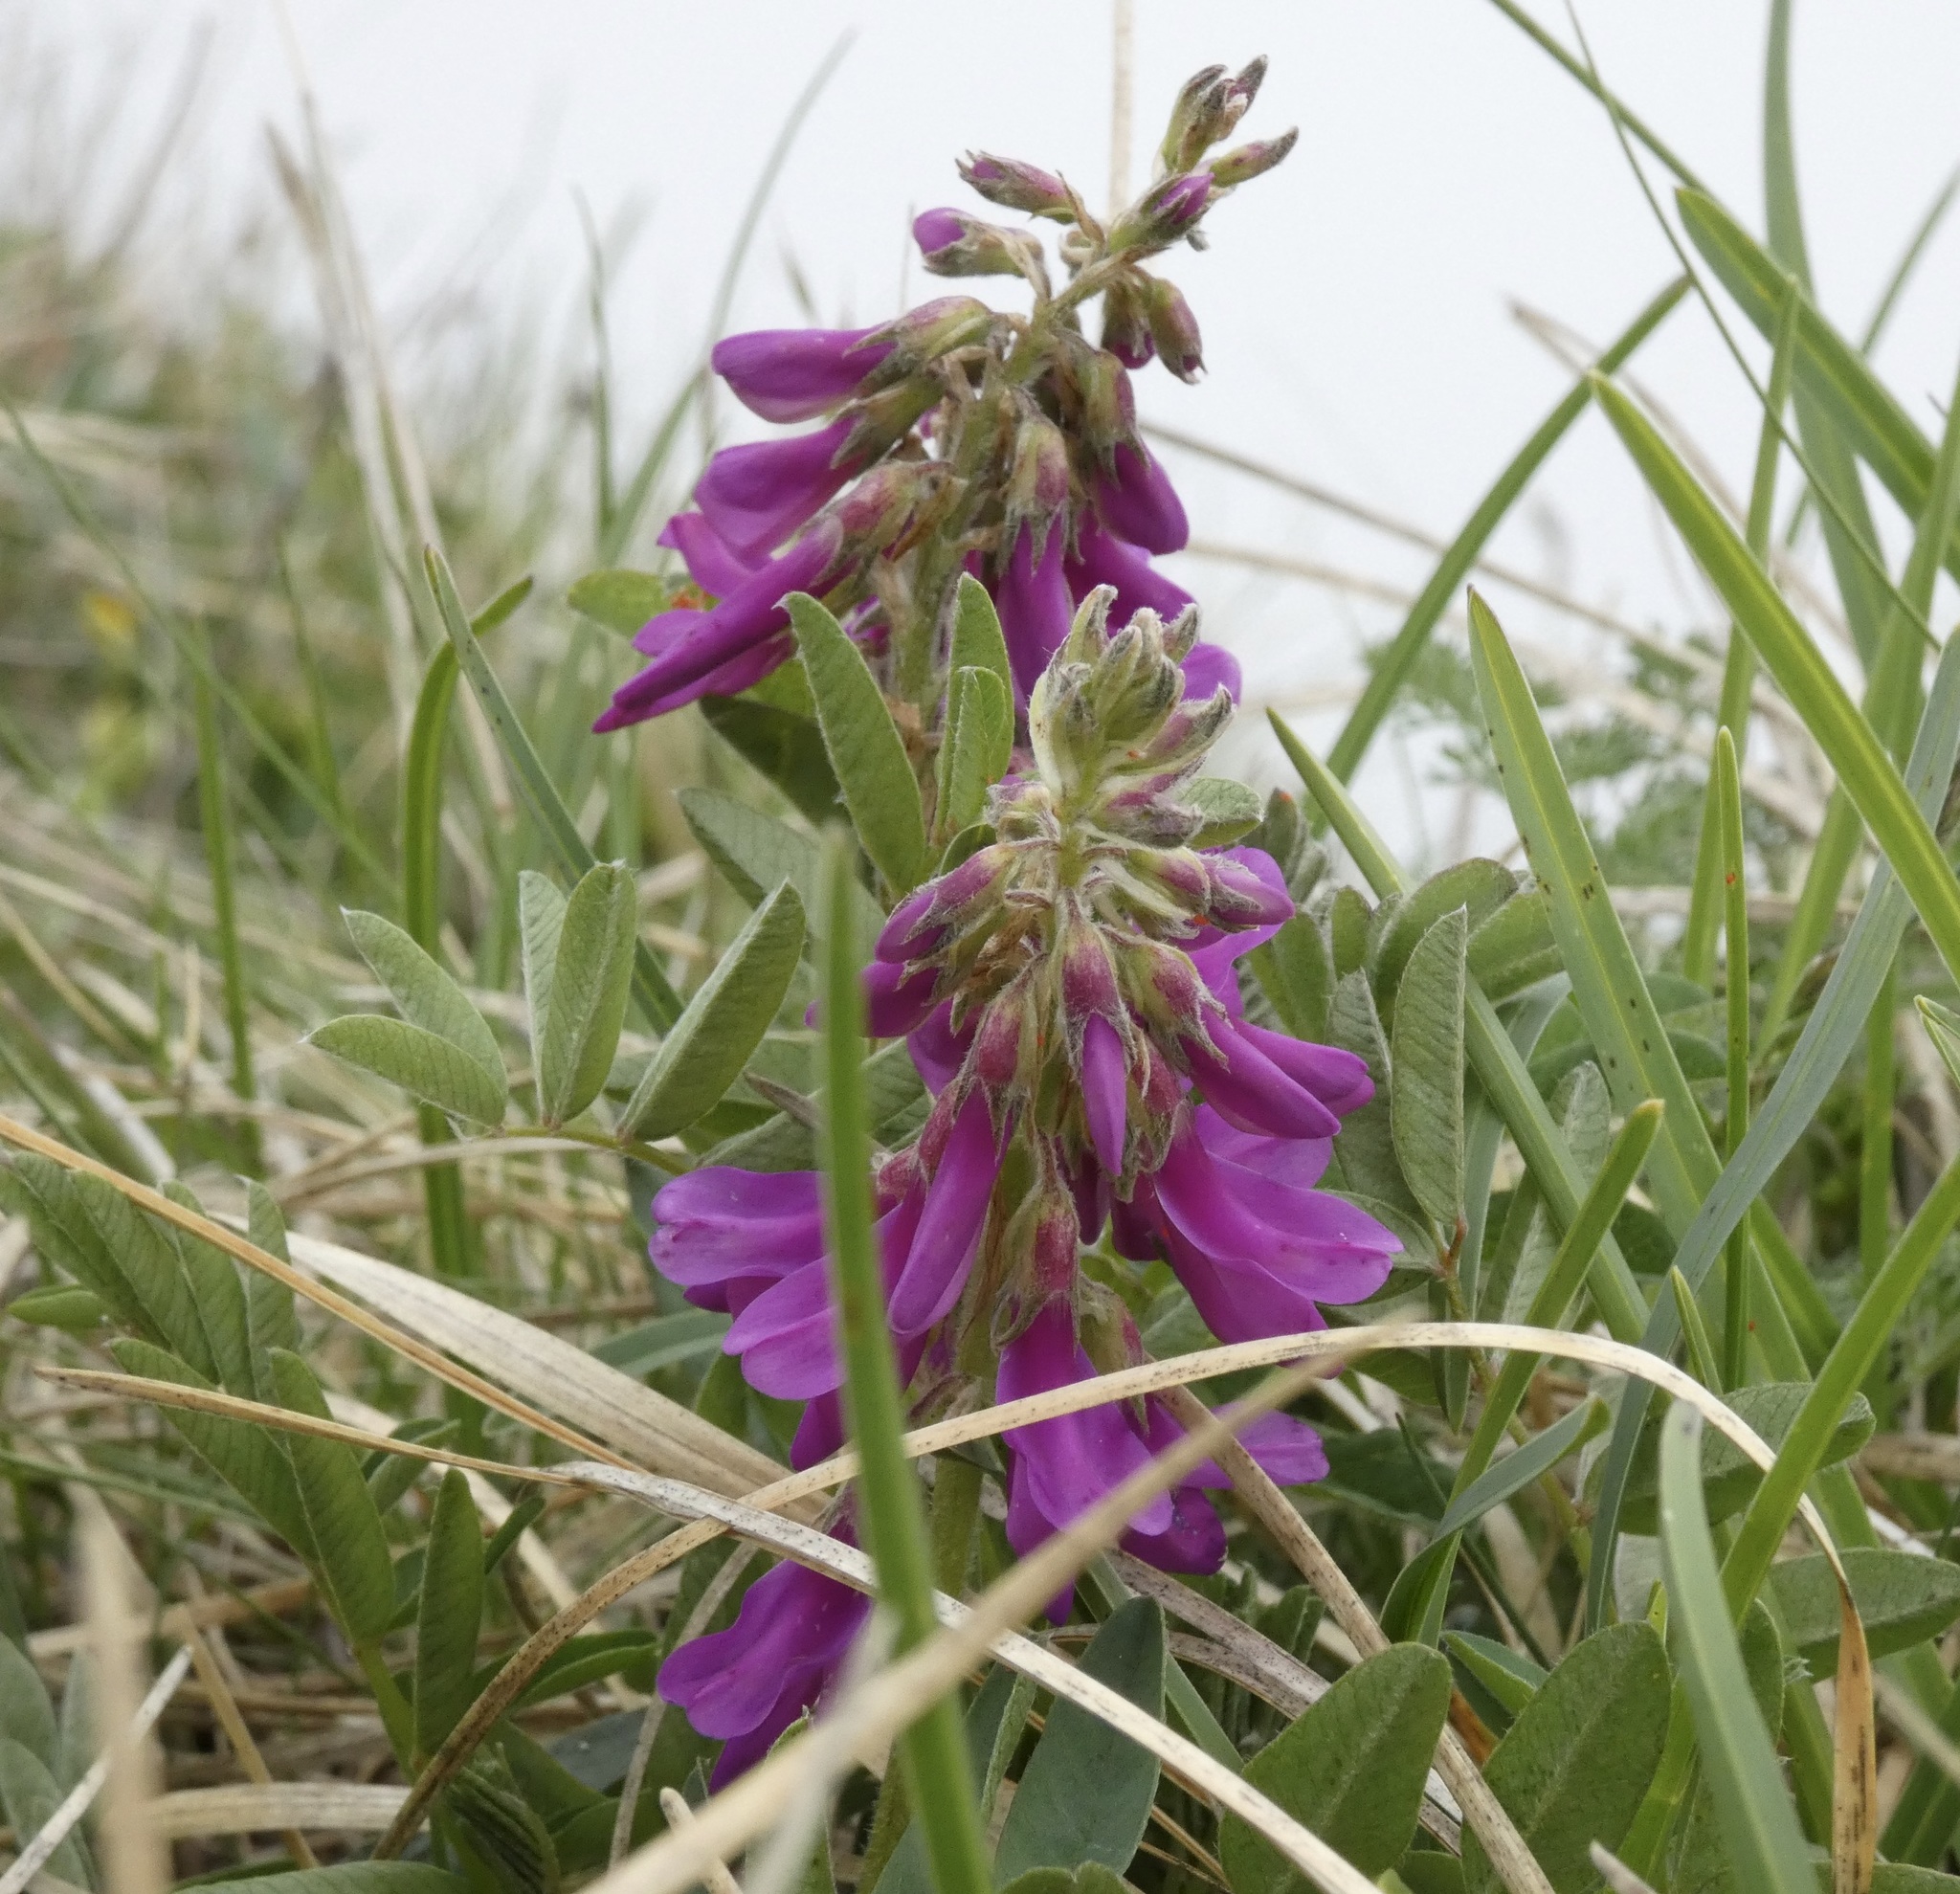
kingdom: Plantae
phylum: Tracheophyta
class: Magnoliopsida
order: Fabales
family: Fabaceae
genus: Hedysarum
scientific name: Hedysarum hedysaroides
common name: Alpine french-honeysuckle
